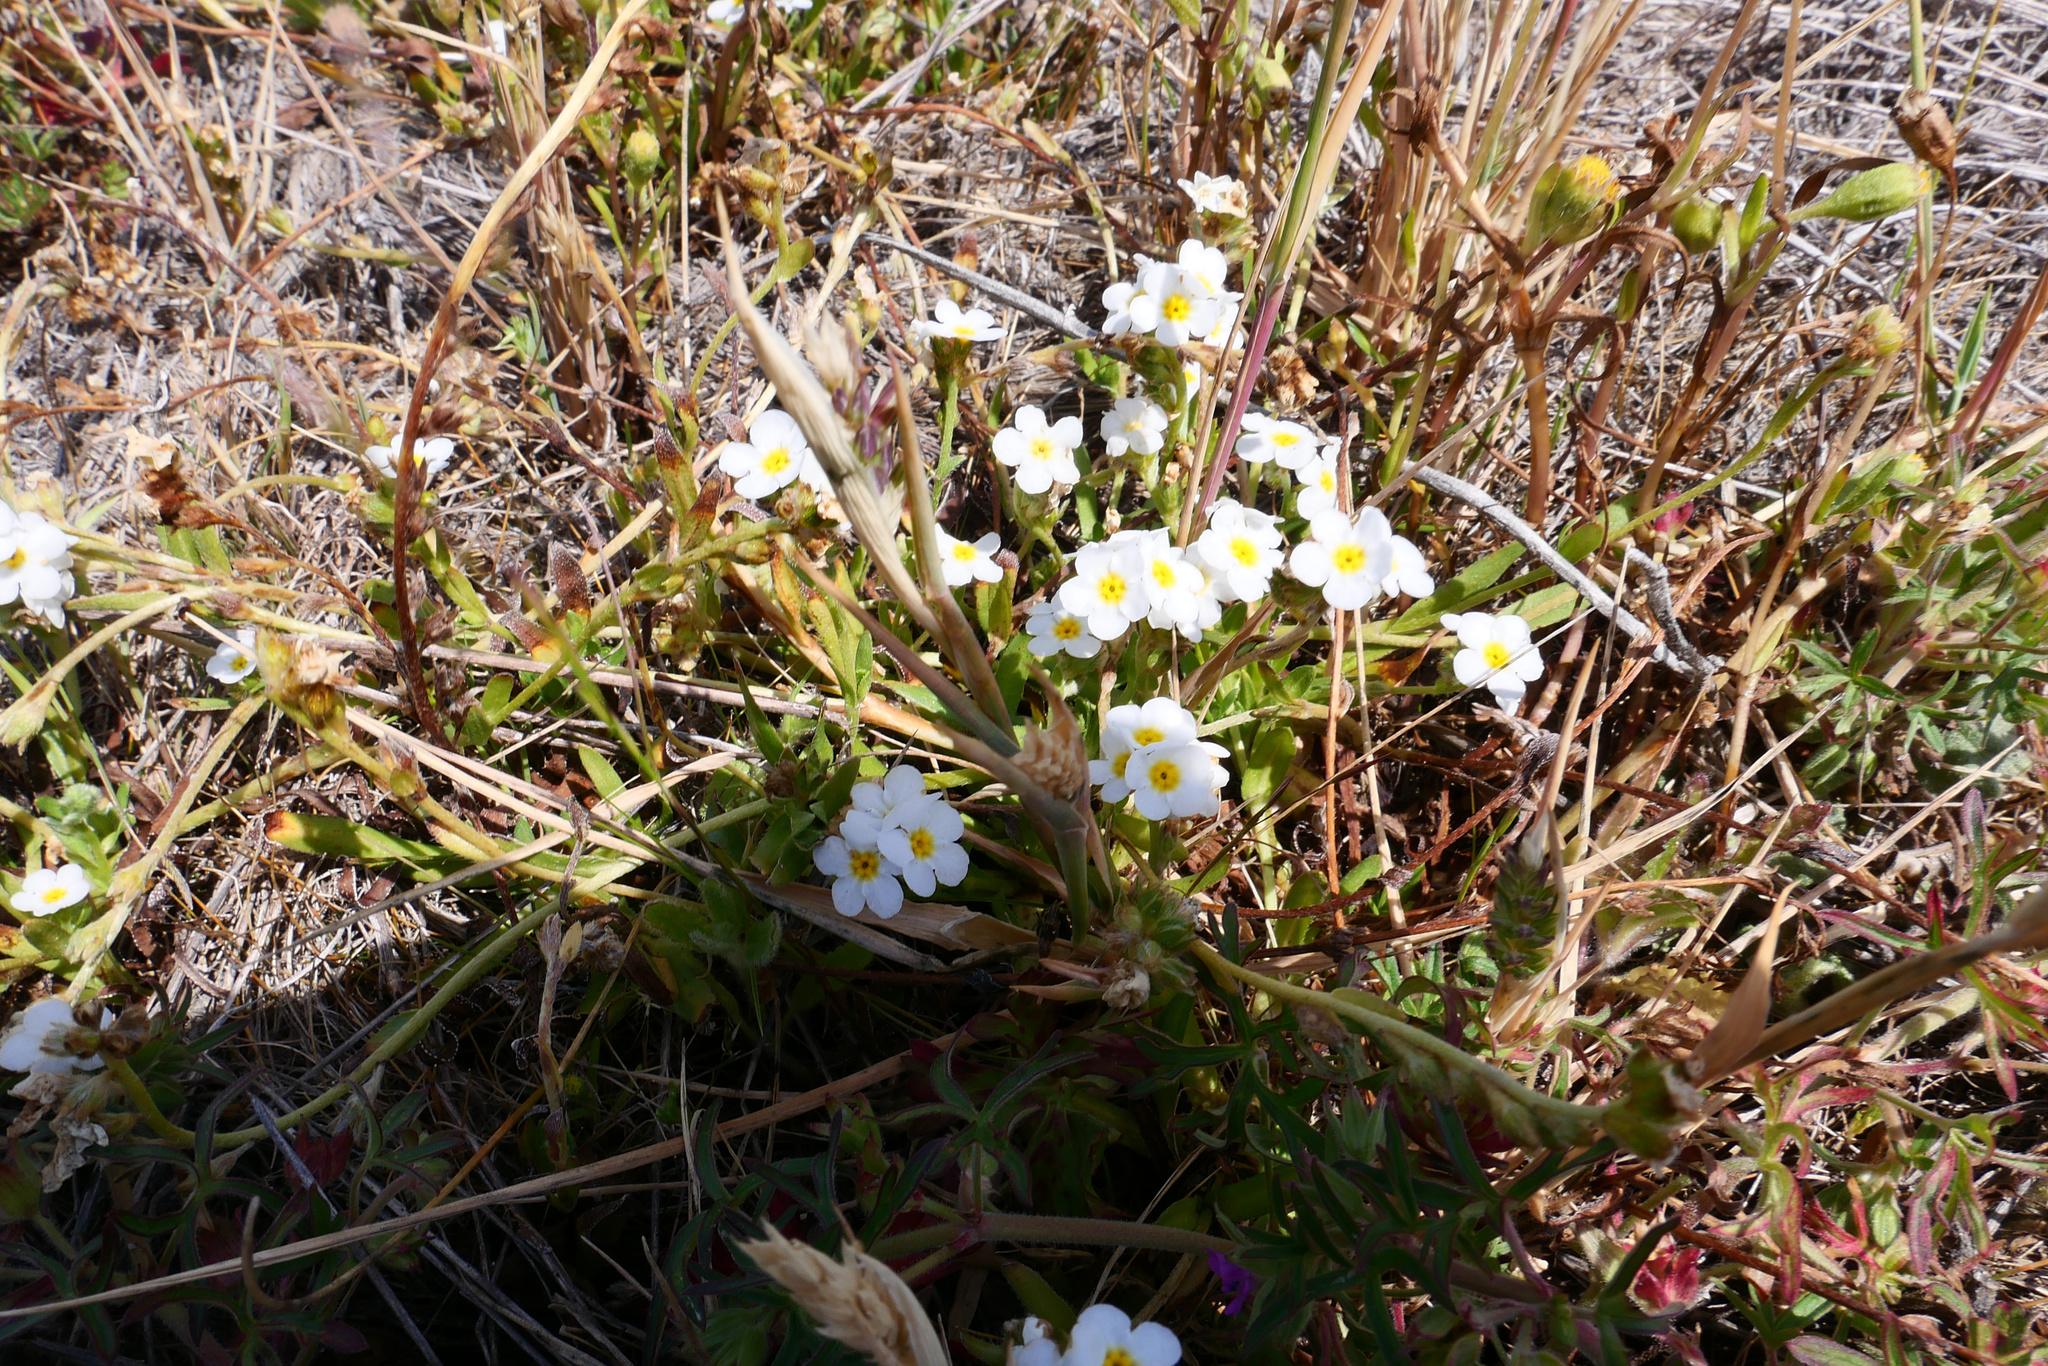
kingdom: Plantae
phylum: Tracheophyta
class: Magnoliopsida
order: Boraginales
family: Boraginaceae
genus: Plagiobothrys
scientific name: Plagiobothrys chorisianus
